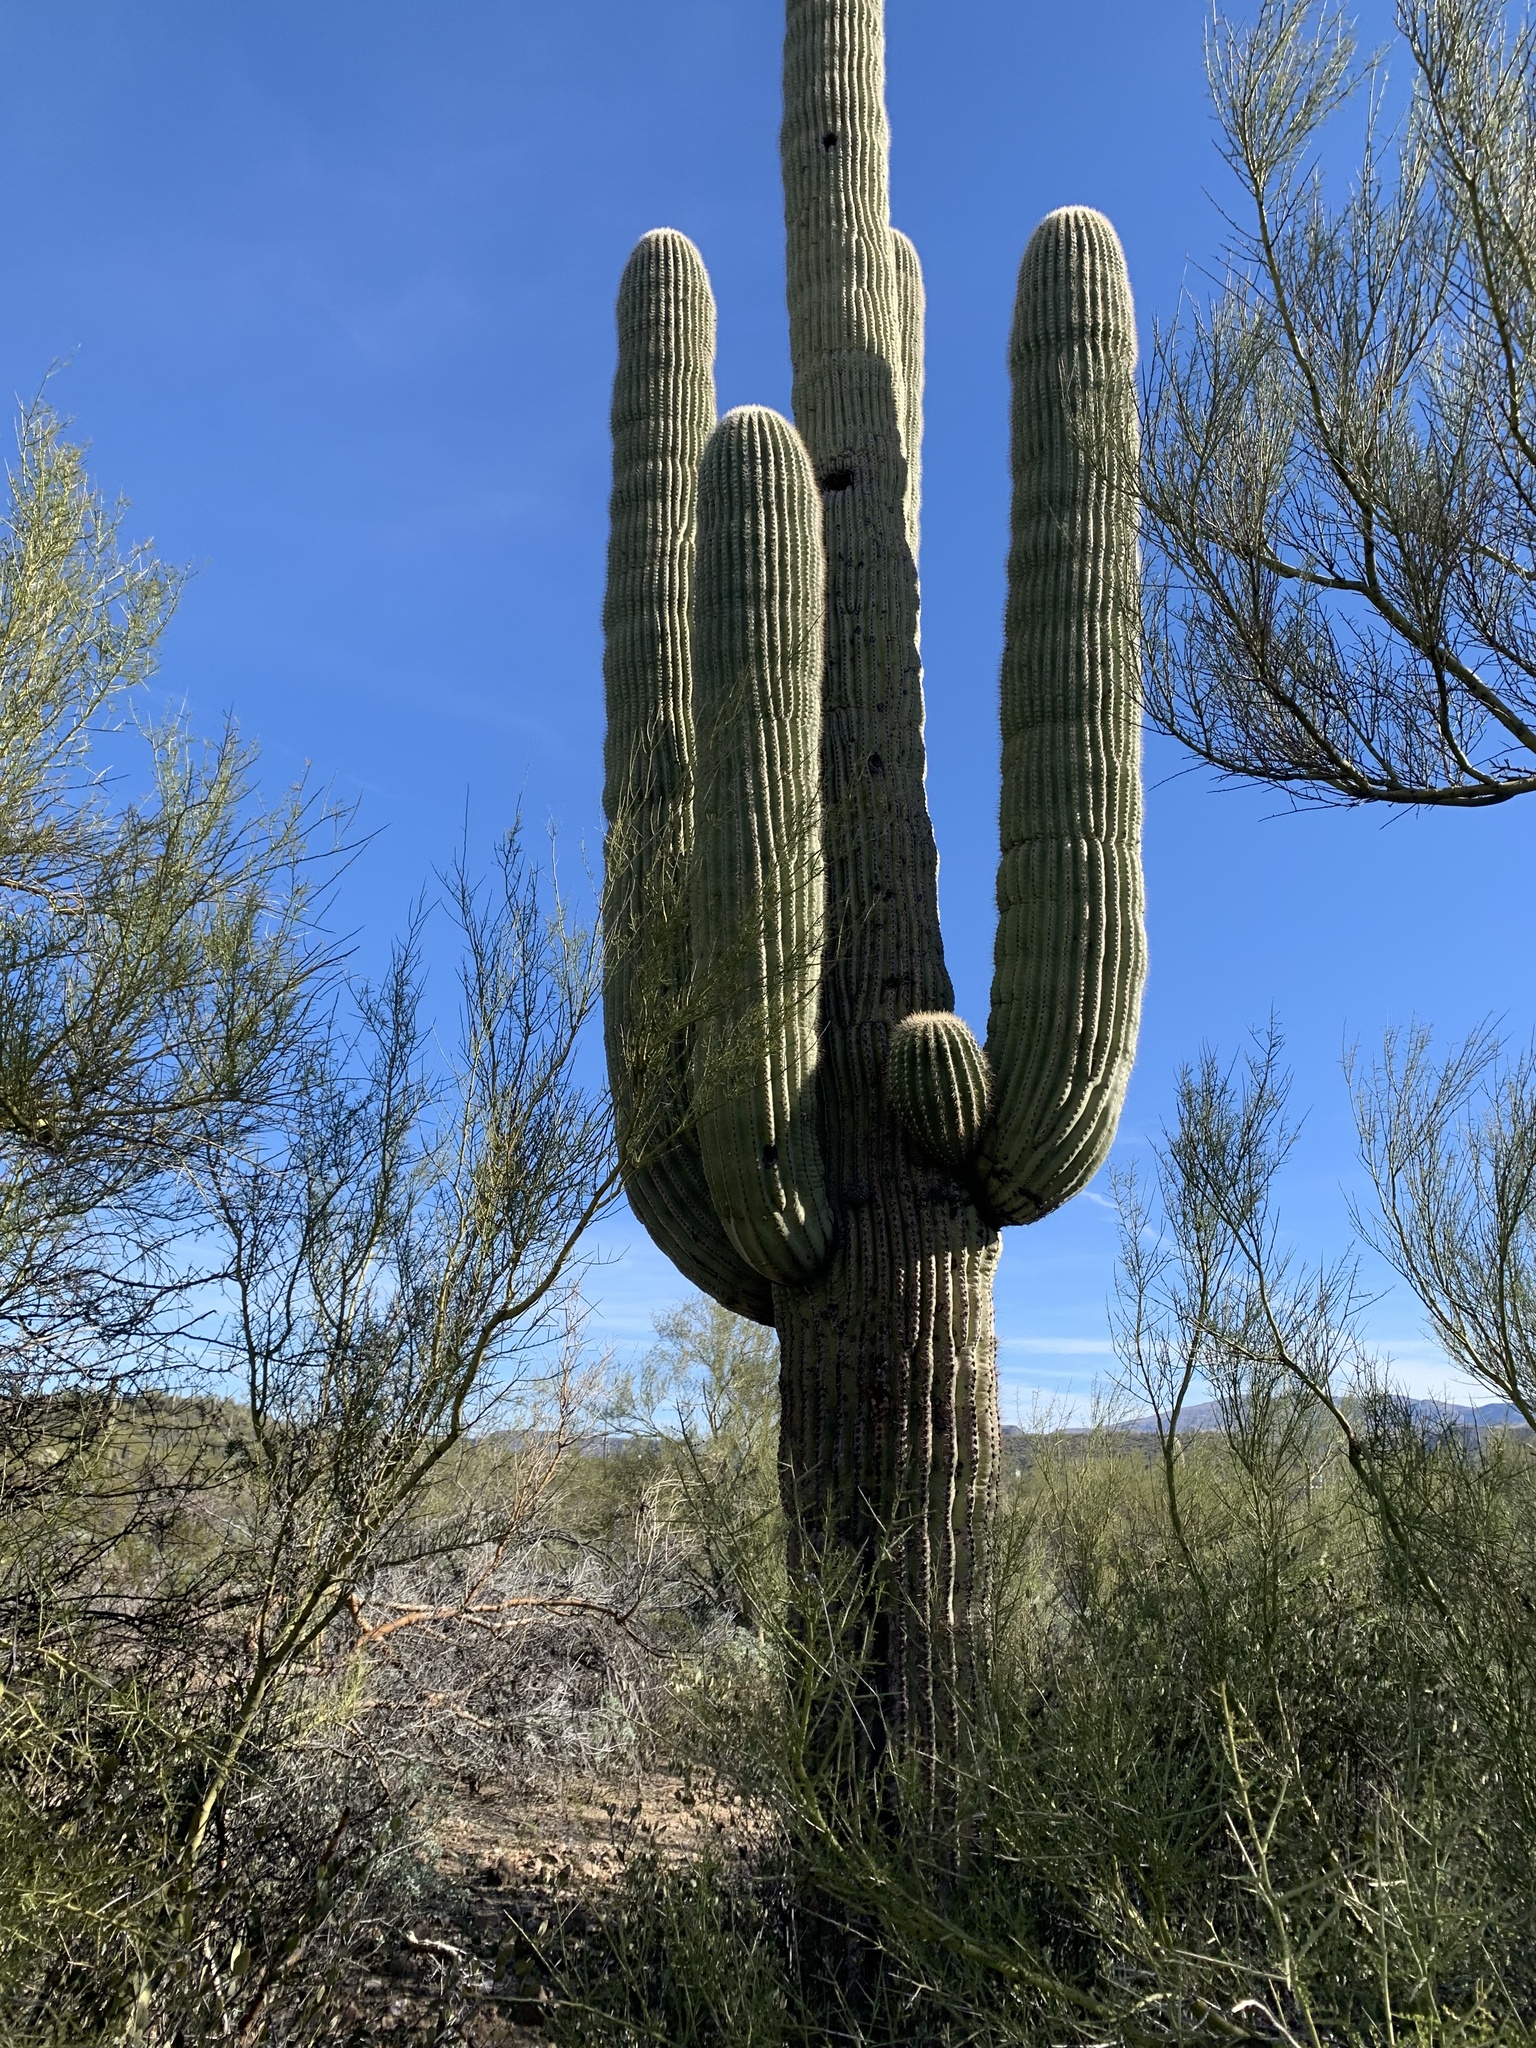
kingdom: Plantae
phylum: Tracheophyta
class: Magnoliopsida
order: Caryophyllales
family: Cactaceae
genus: Carnegiea
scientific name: Carnegiea gigantea
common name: Saguaro
